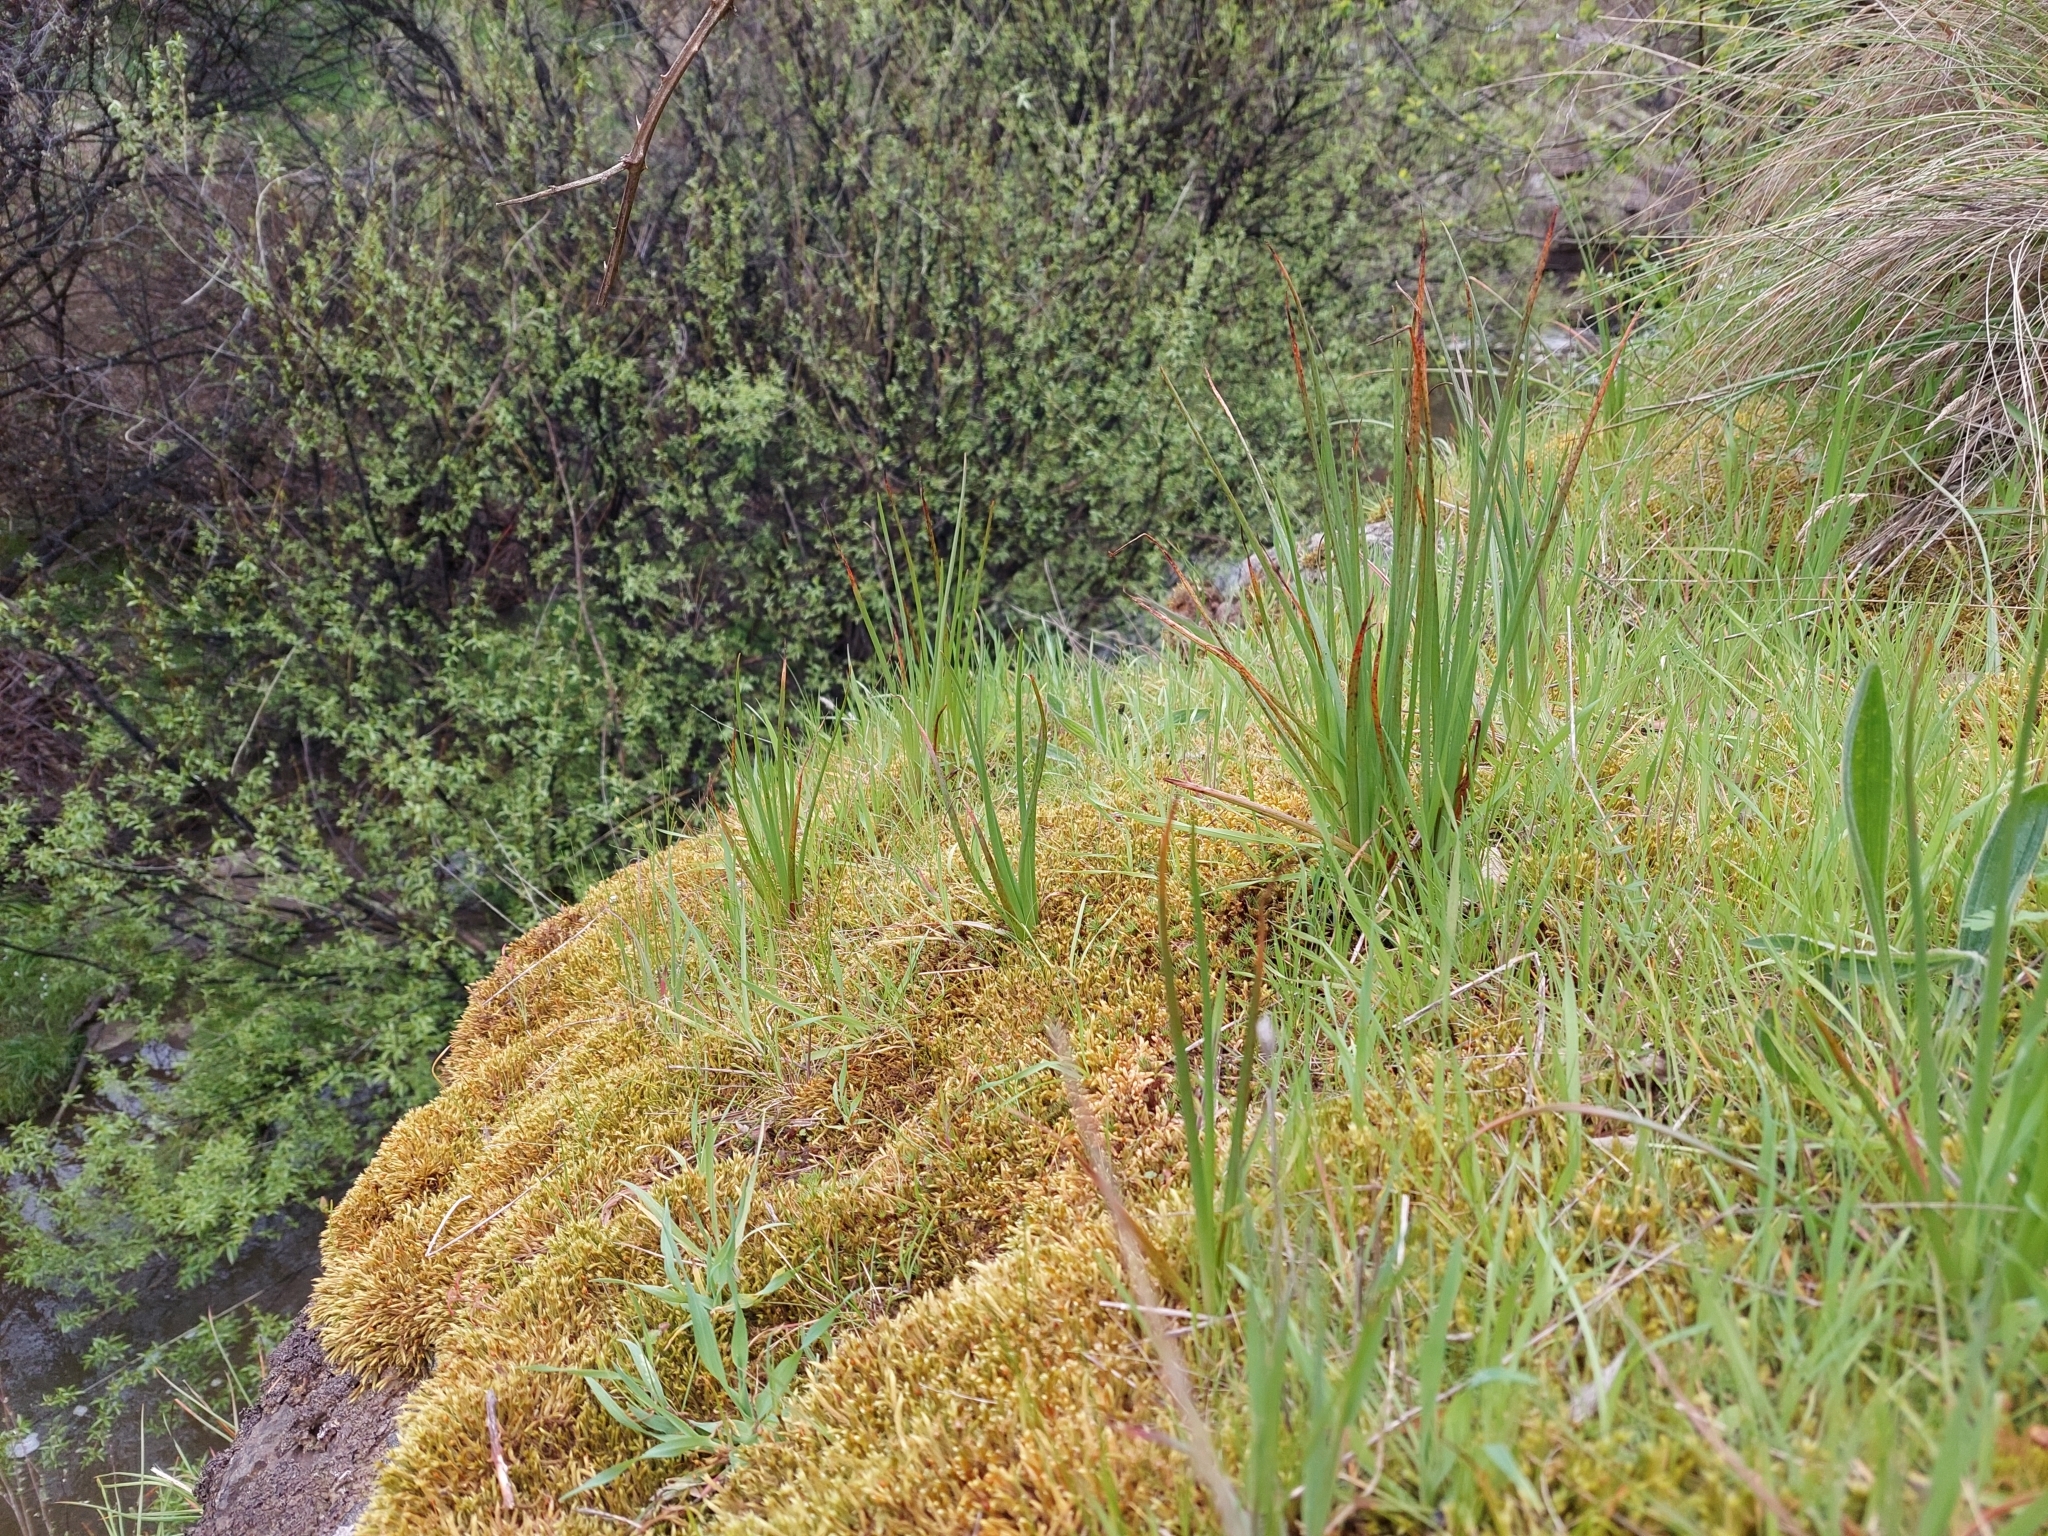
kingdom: Plantae
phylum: Tracheophyta
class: Liliopsida
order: Asparagales
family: Asphodelaceae
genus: Bulbine
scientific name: Bulbine glauca
